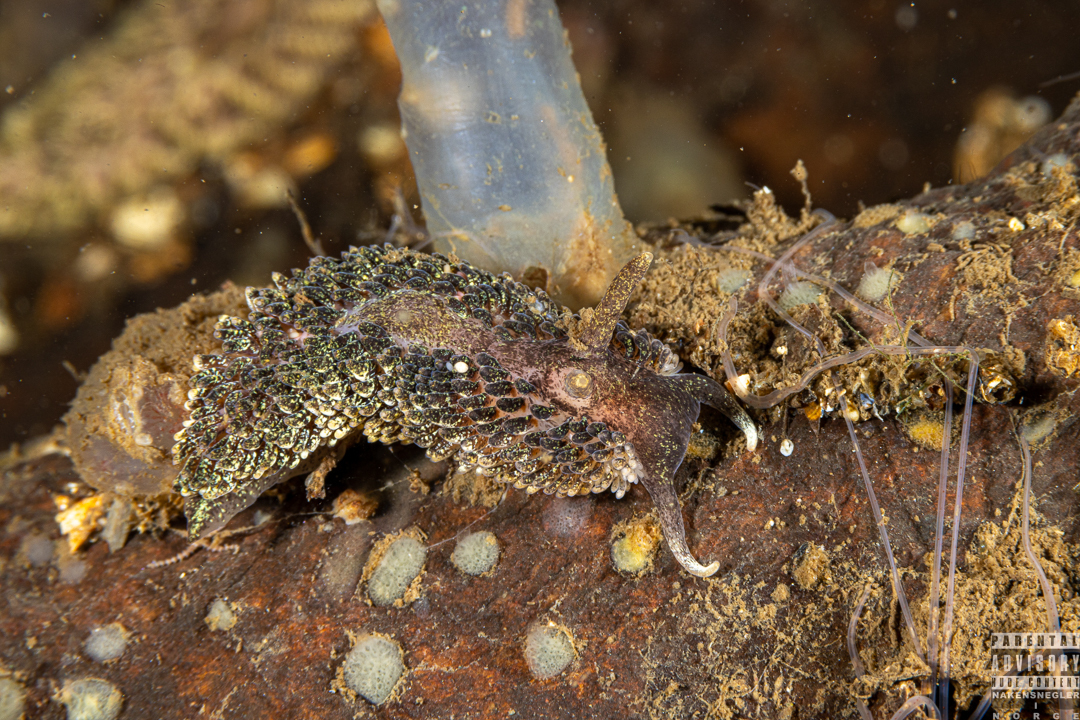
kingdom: Animalia
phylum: Mollusca
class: Gastropoda
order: Nudibranchia
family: Aeolidiidae
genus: Aeolidia
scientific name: Aeolidia papillosa
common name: Common grey sea slug
